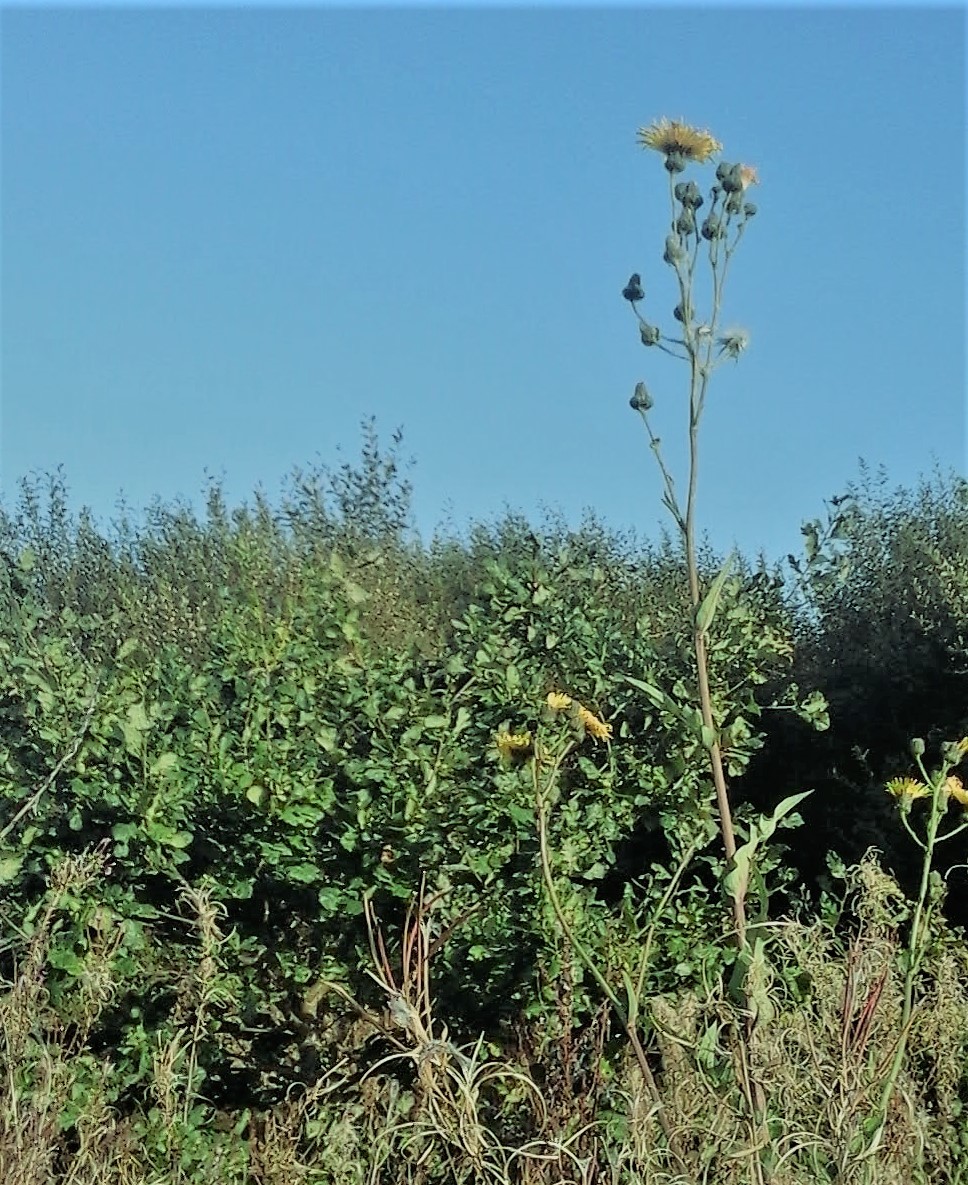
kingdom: Plantae
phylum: Tracheophyta
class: Magnoliopsida
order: Asterales
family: Asteraceae
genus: Sonchus
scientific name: Sonchus arvensis
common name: Perennial sow-thistle
